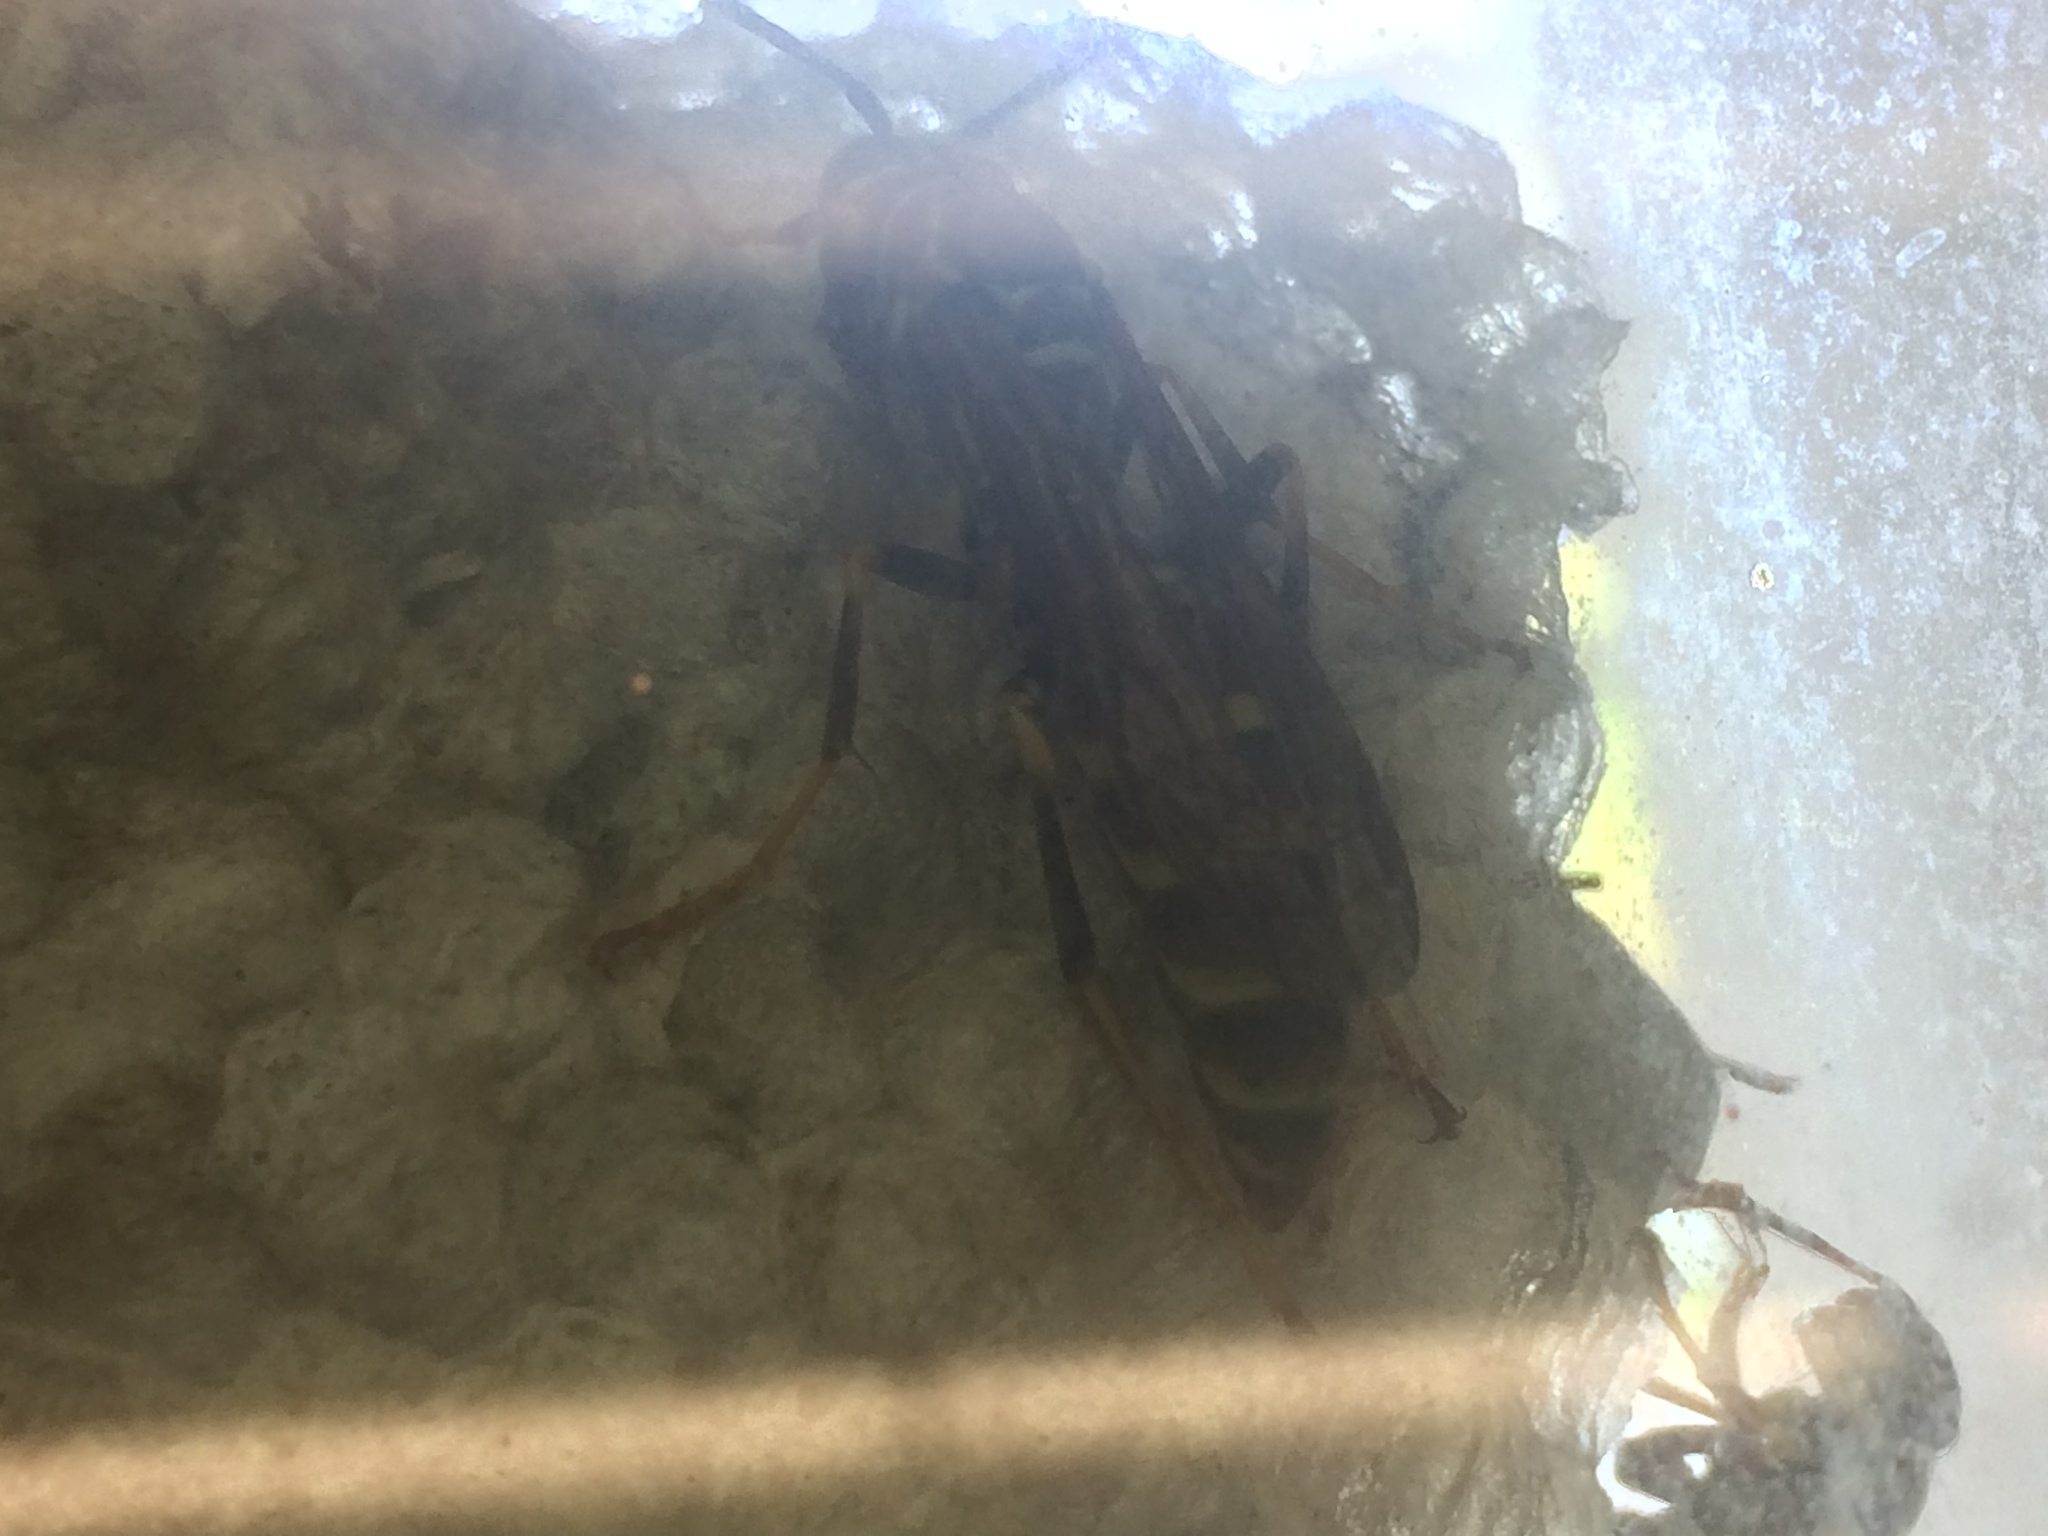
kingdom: Animalia
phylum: Arthropoda
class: Insecta
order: Hymenoptera
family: Eumenidae
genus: Polistes
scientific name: Polistes exclamans
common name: Paper wasp
